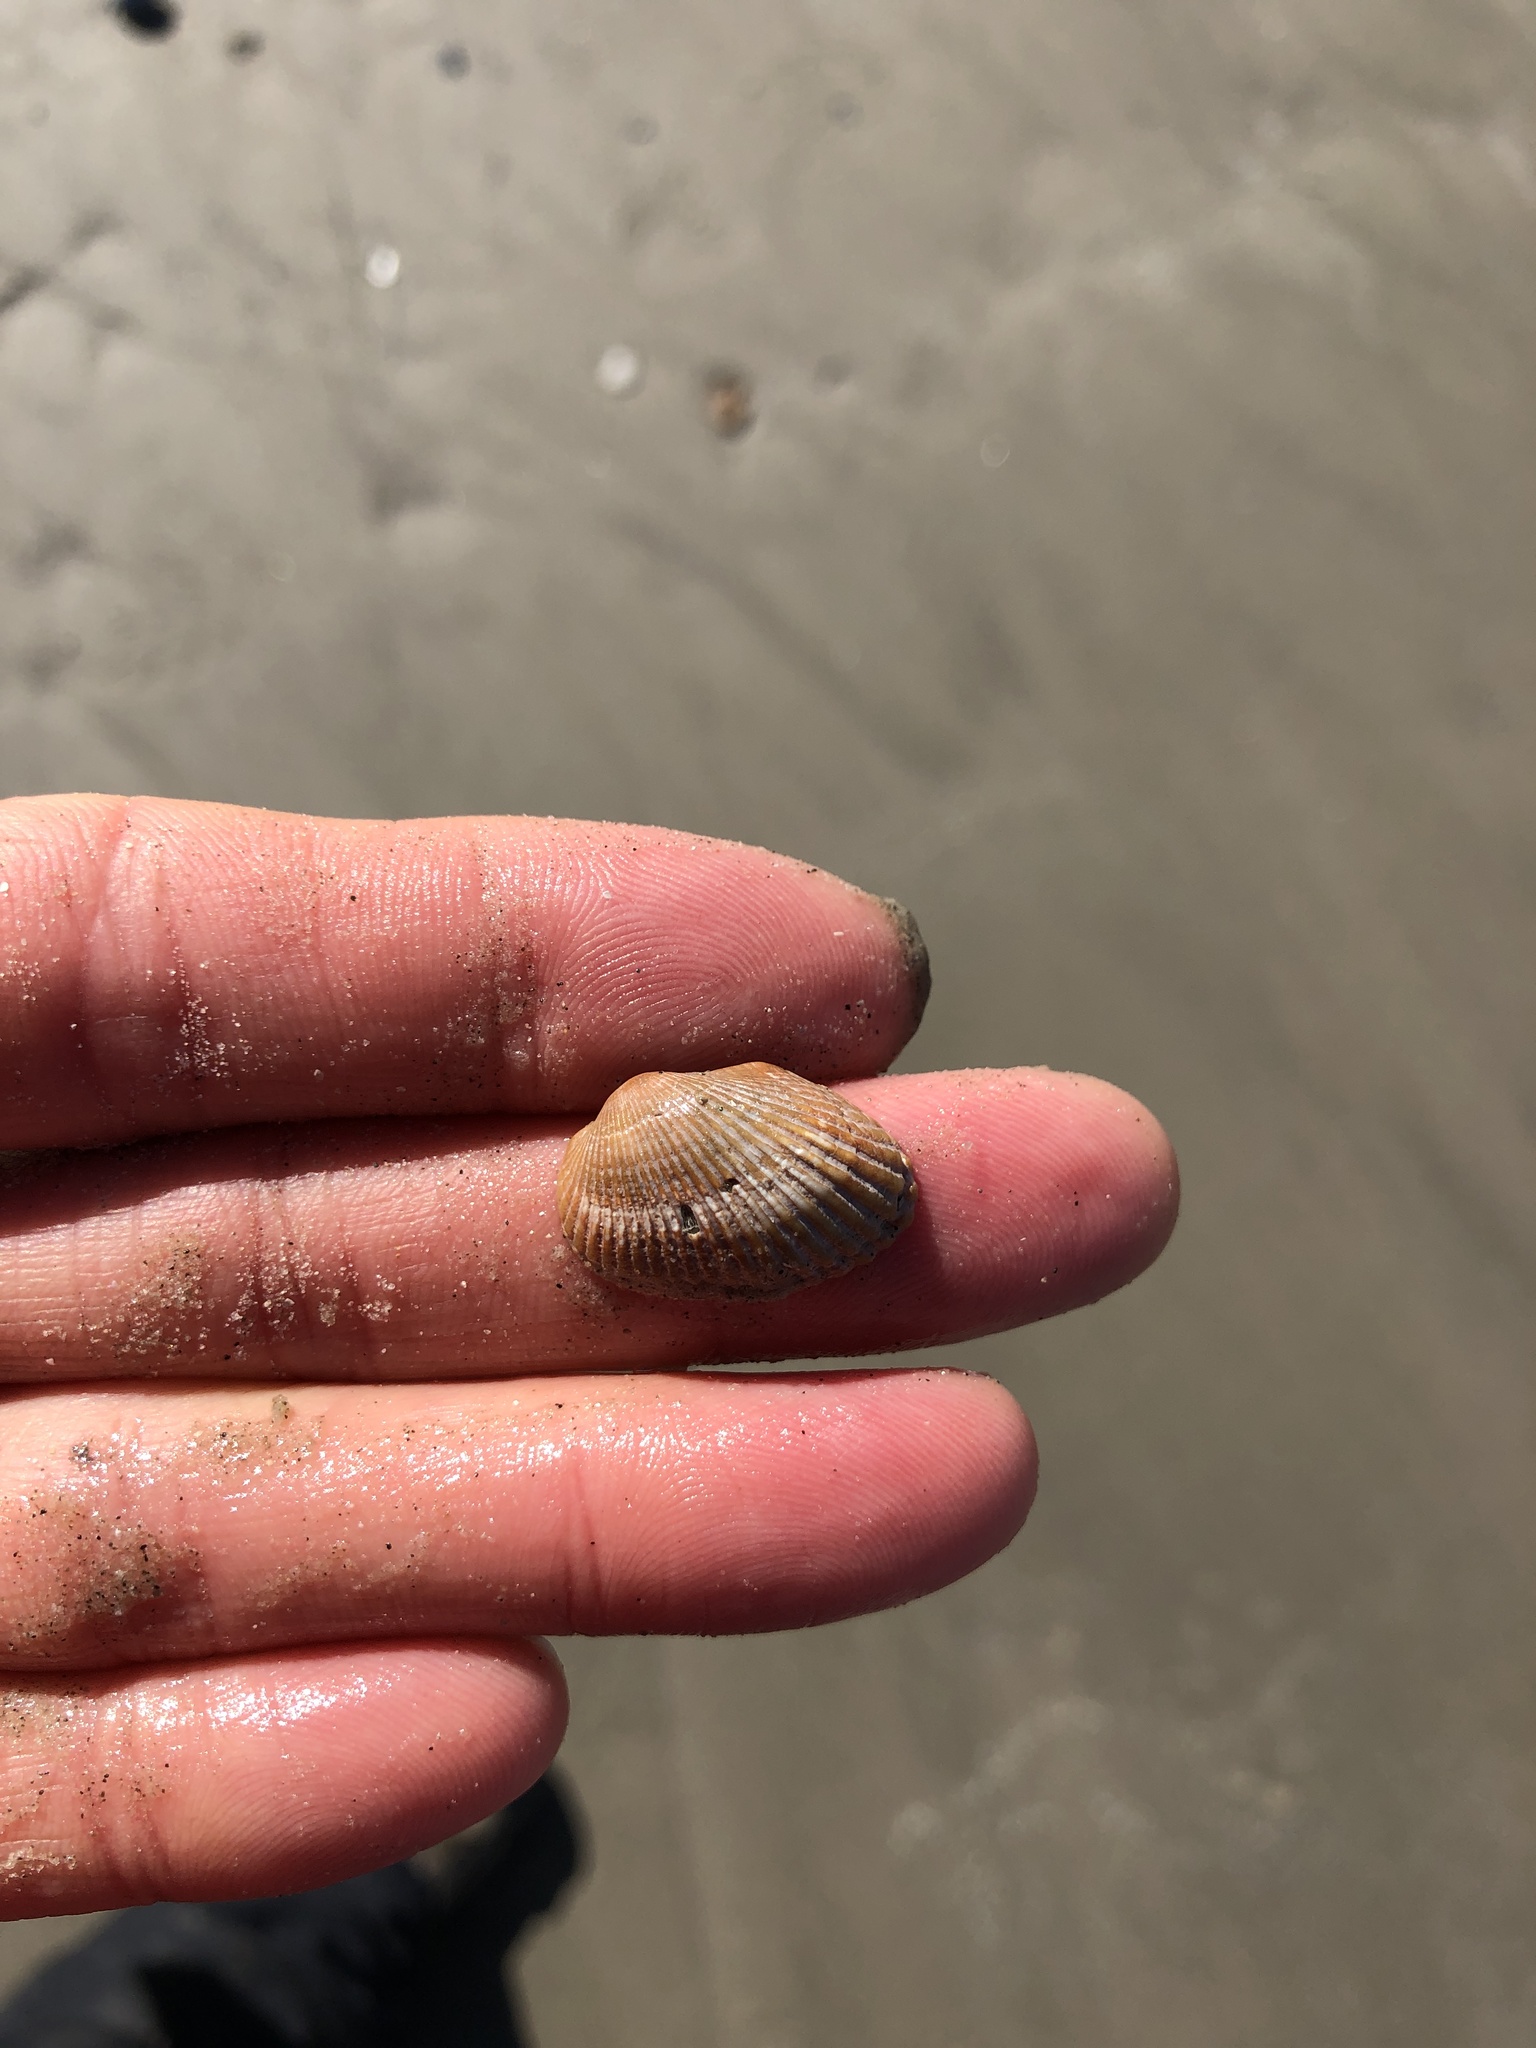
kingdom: Animalia
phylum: Mollusca
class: Bivalvia
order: Arcida
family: Arcidae
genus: Anadara
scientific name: Anadara transversa
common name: Transverse ark
